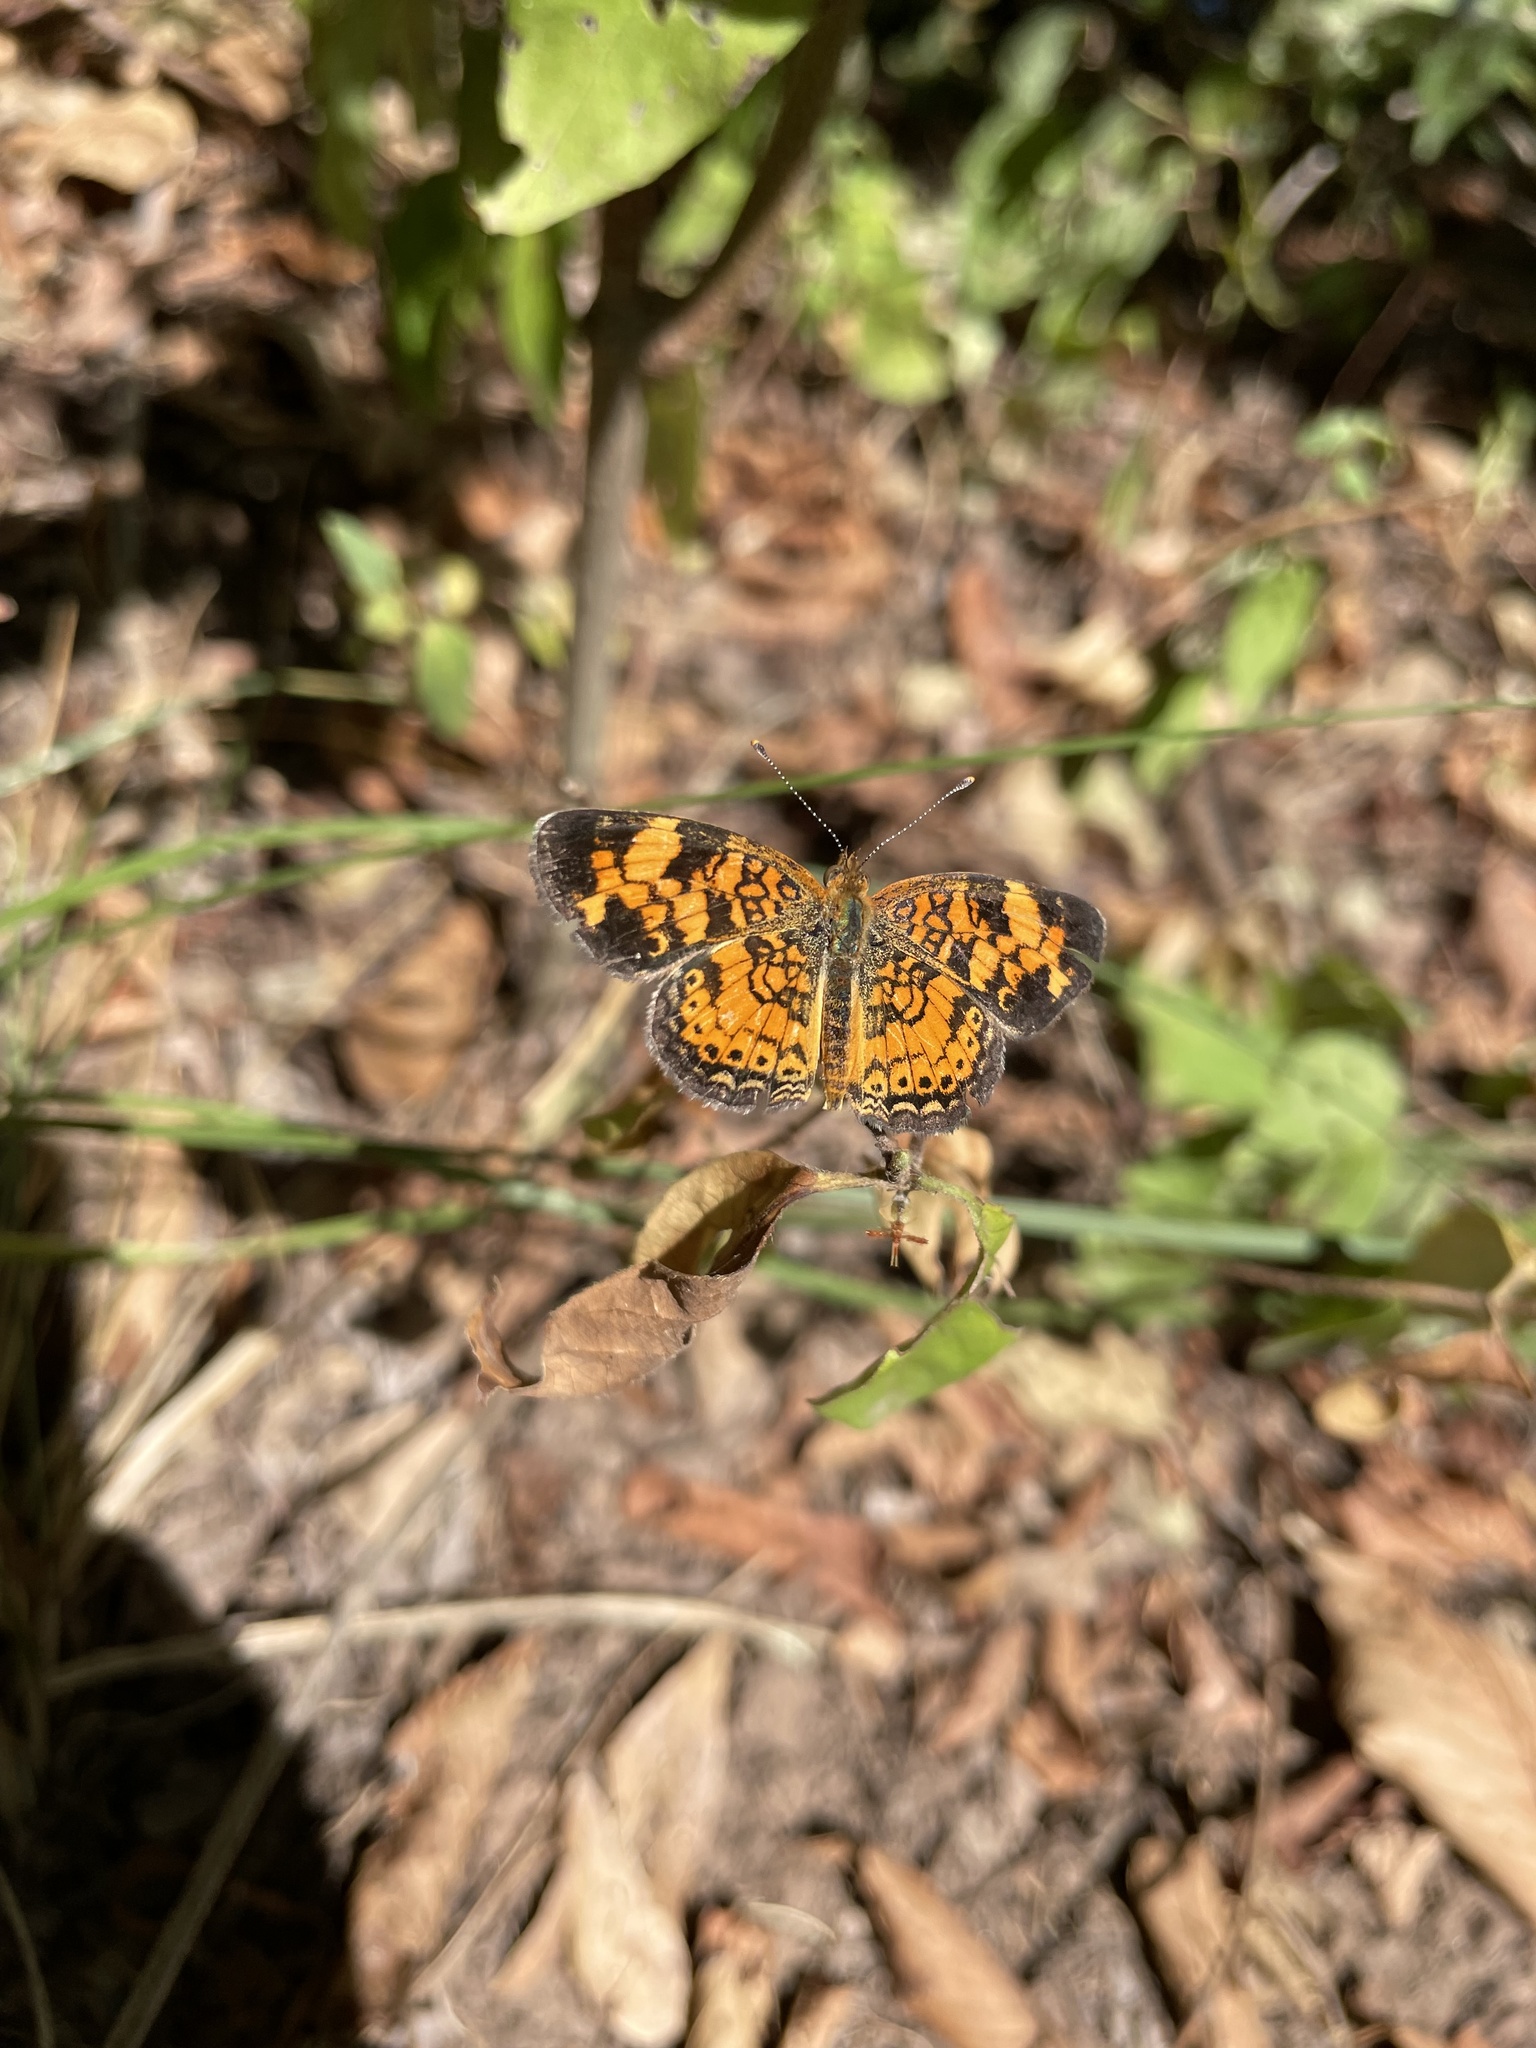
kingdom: Animalia
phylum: Arthropoda
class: Insecta
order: Lepidoptera
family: Nymphalidae
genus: Phyciodes
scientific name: Phyciodes tharos
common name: Pearl crescent
